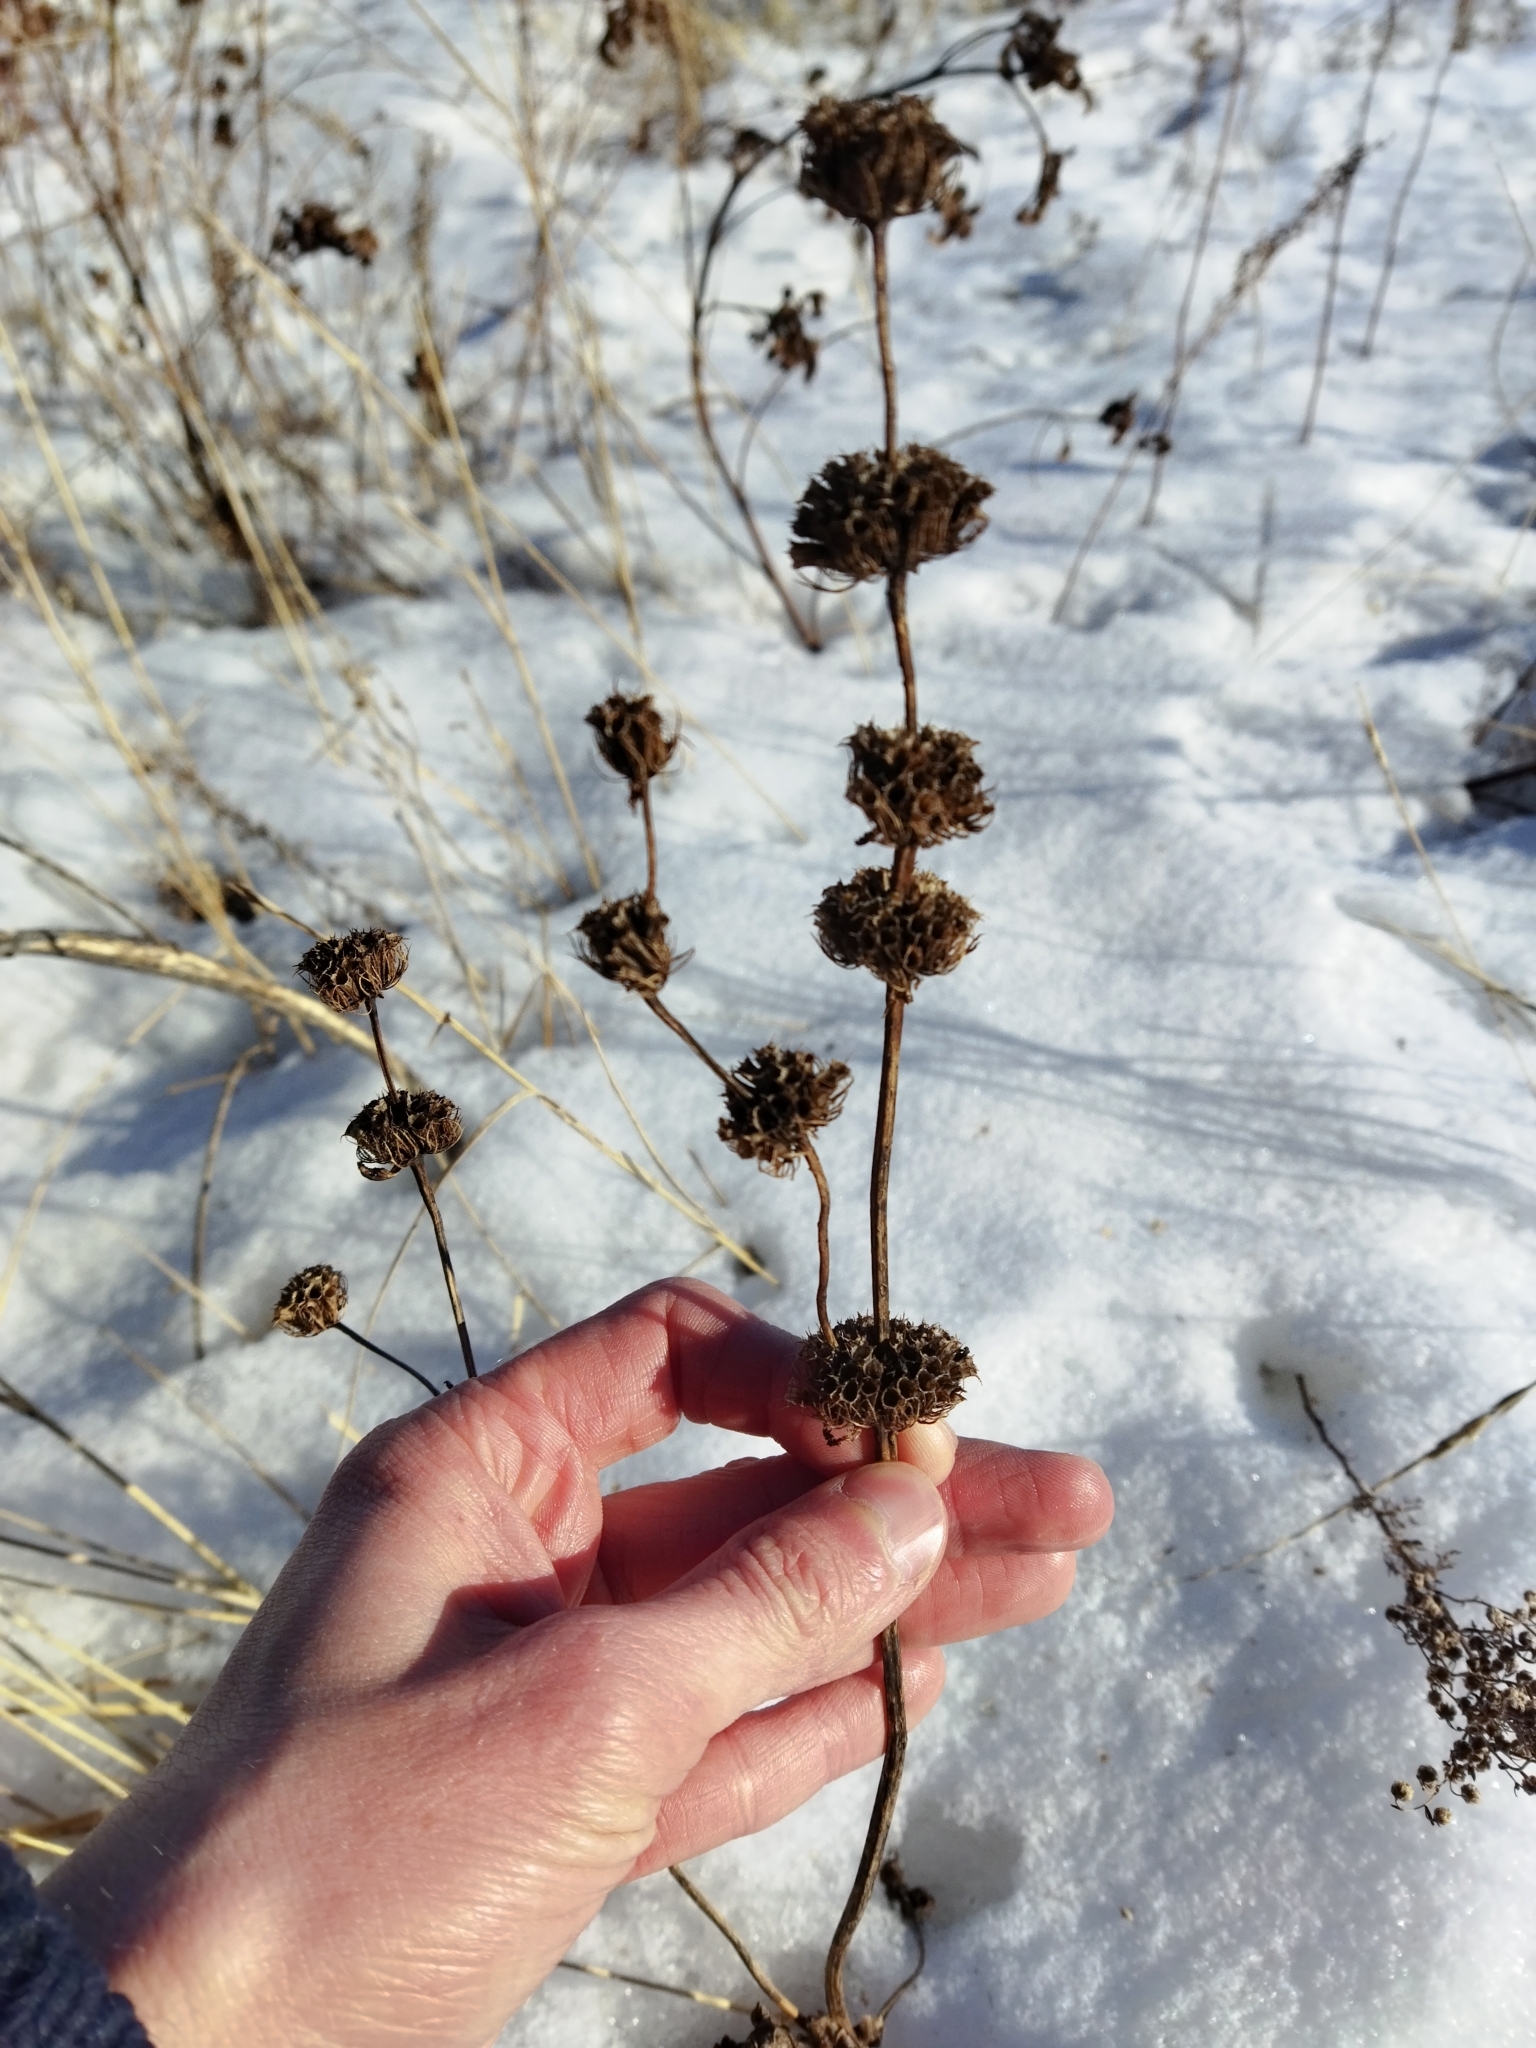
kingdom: Plantae
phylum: Tracheophyta
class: Magnoliopsida
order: Lamiales
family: Lamiaceae
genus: Phlomoides
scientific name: Phlomoides tuberosa
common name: Tuberous jerusalem sage
